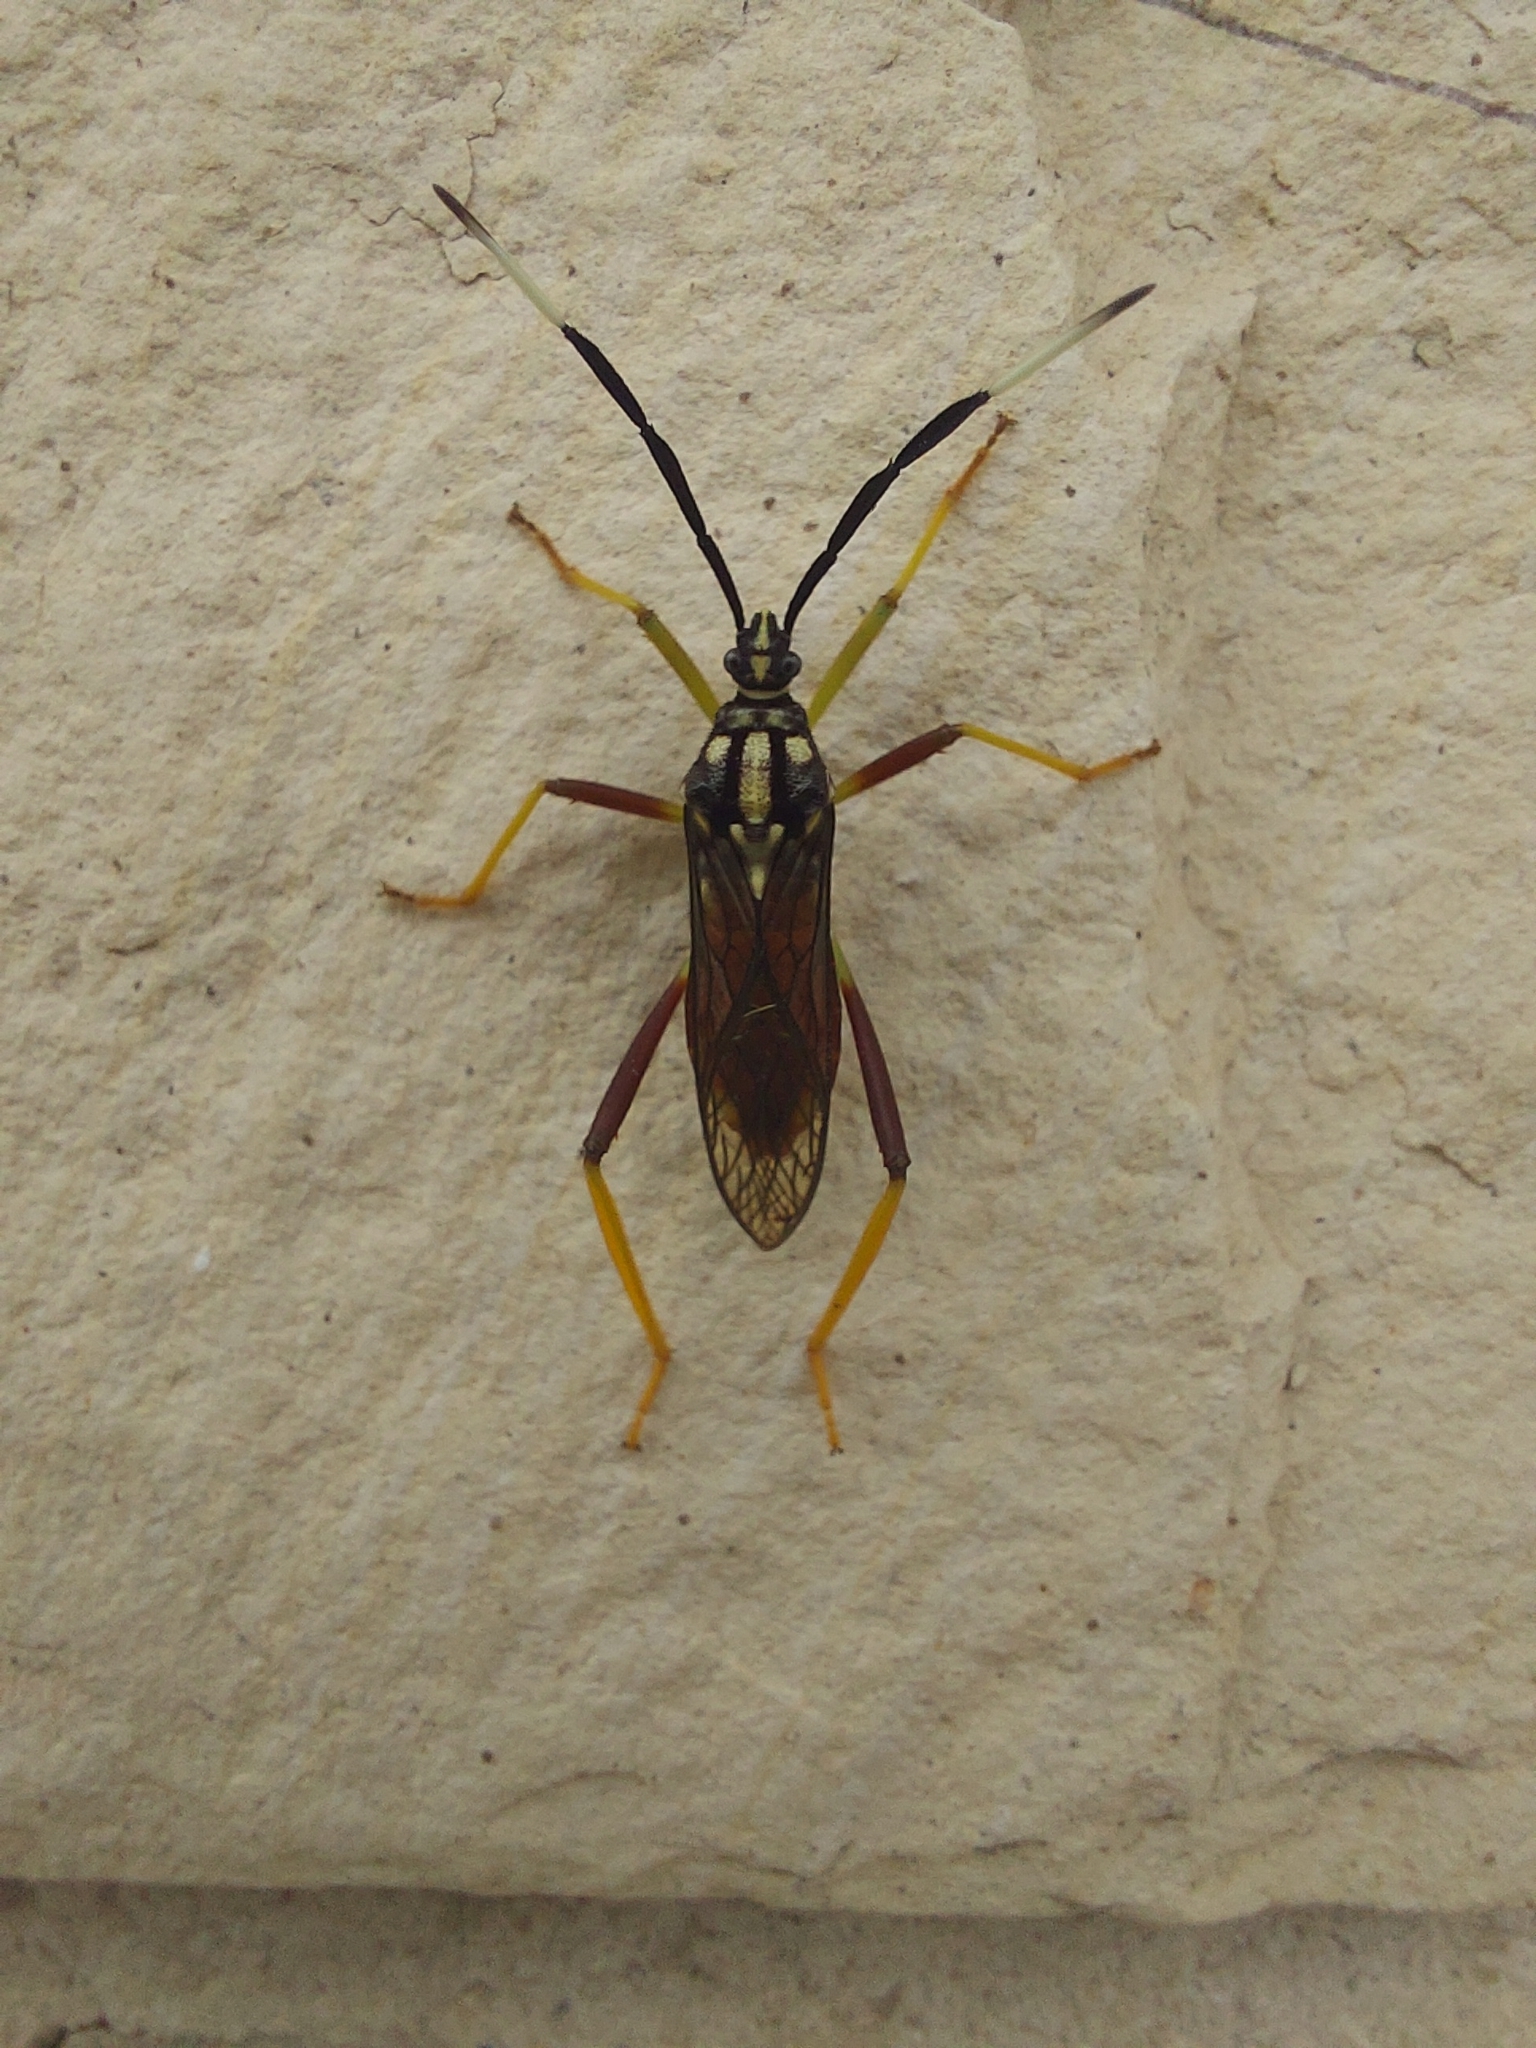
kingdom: Animalia
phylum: Arthropoda
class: Insecta
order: Hemiptera
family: Coreidae
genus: Holhymenia
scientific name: Holhymenia histrio
